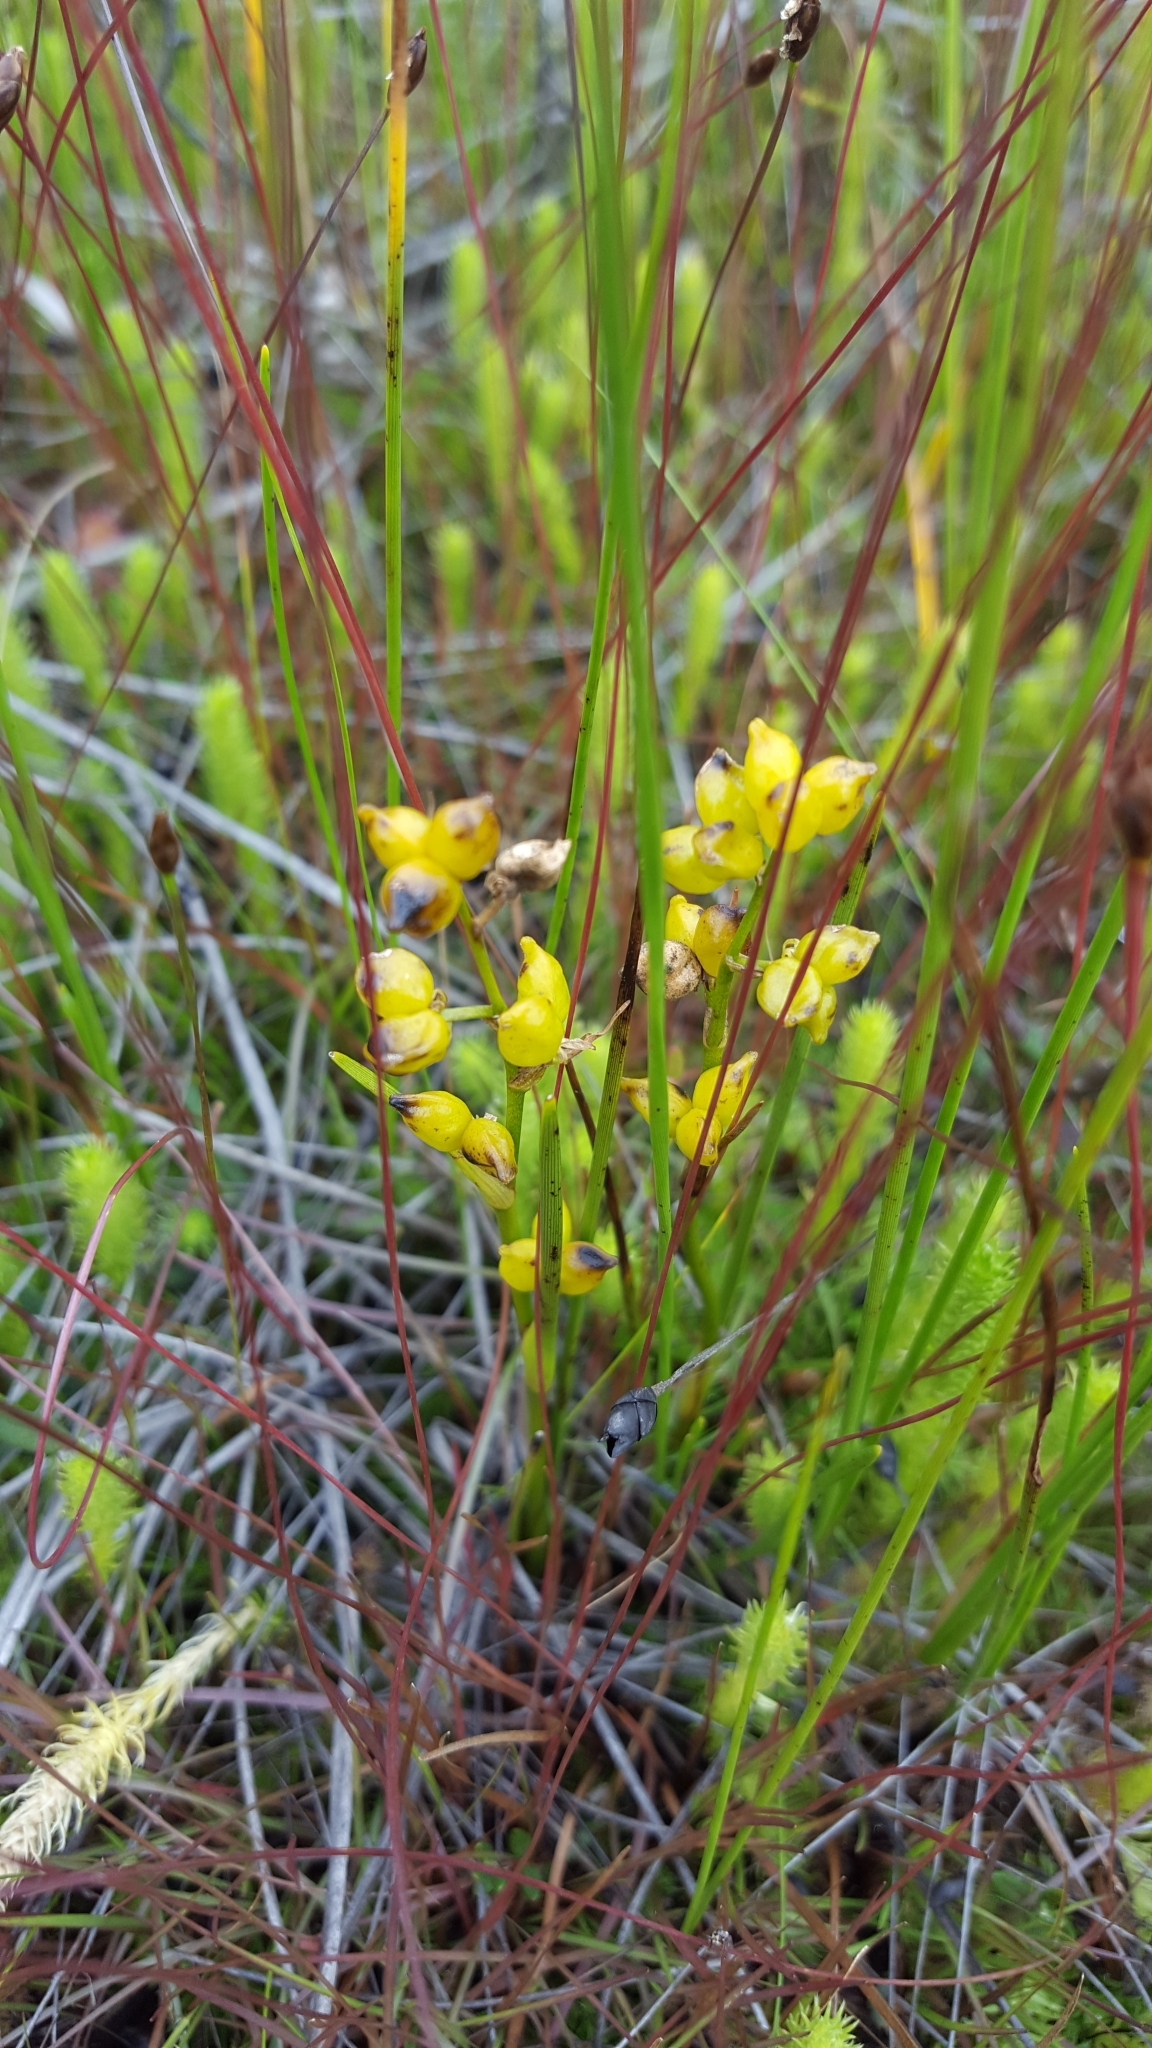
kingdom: Plantae
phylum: Tracheophyta
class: Liliopsida
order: Alismatales
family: Scheuchzeriaceae
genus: Scheuchzeria
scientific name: Scheuchzeria palustris
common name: Rannoch-rush
